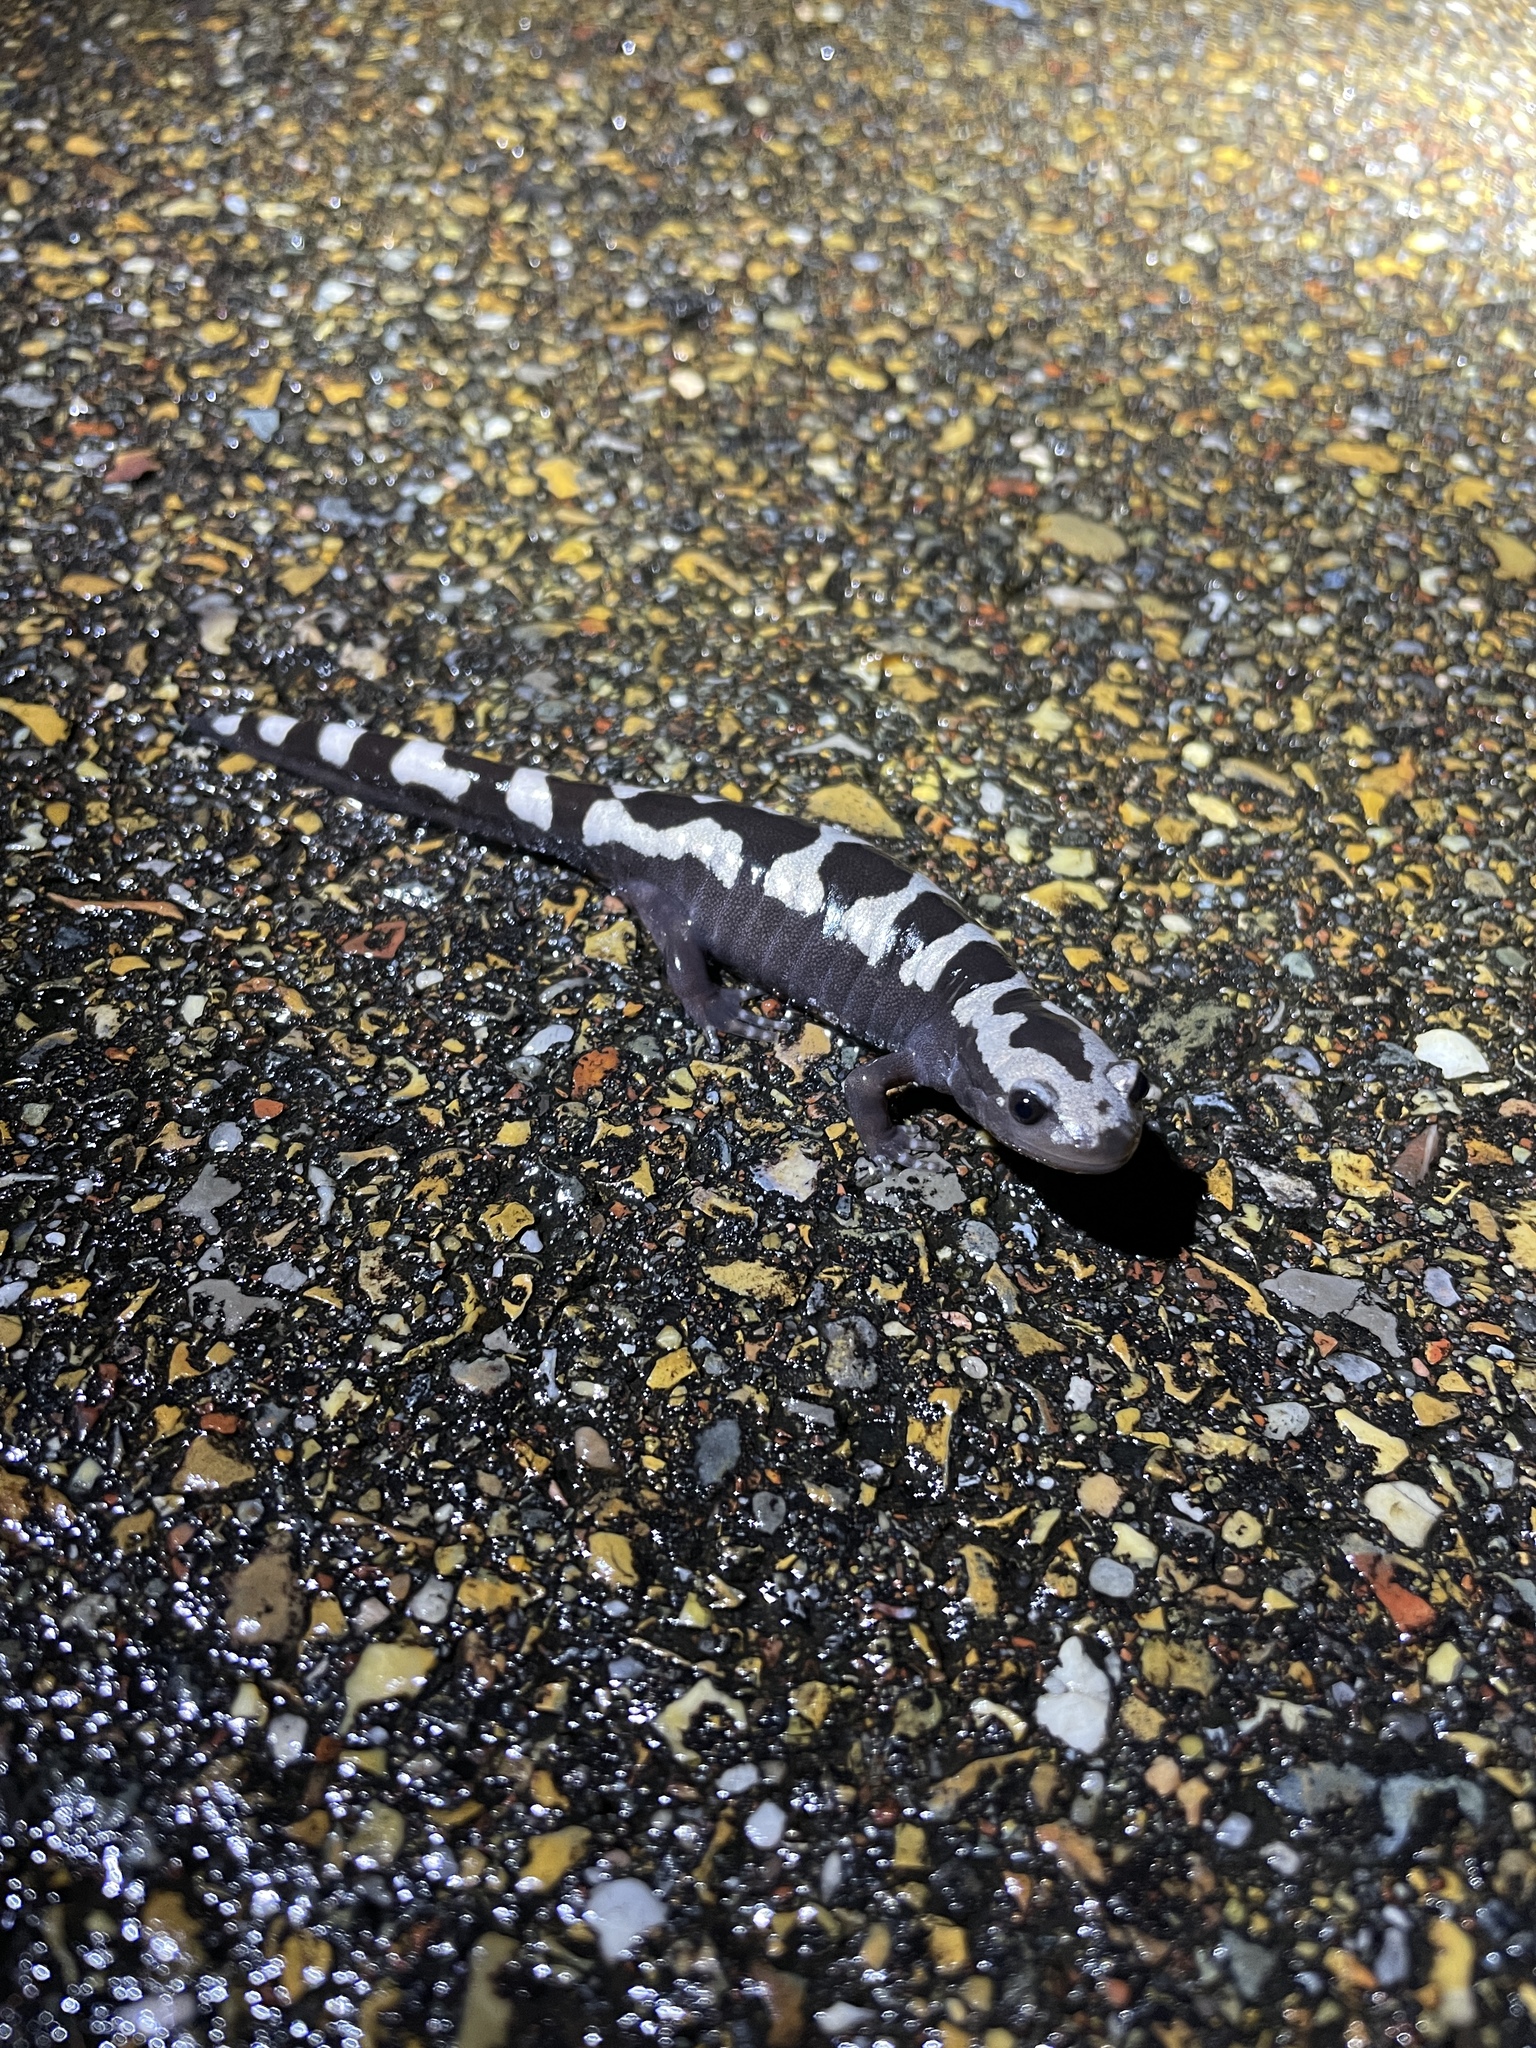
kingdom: Animalia
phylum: Chordata
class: Amphibia
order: Caudata
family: Ambystomatidae
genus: Ambystoma
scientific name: Ambystoma opacum
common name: Marbled salamander
